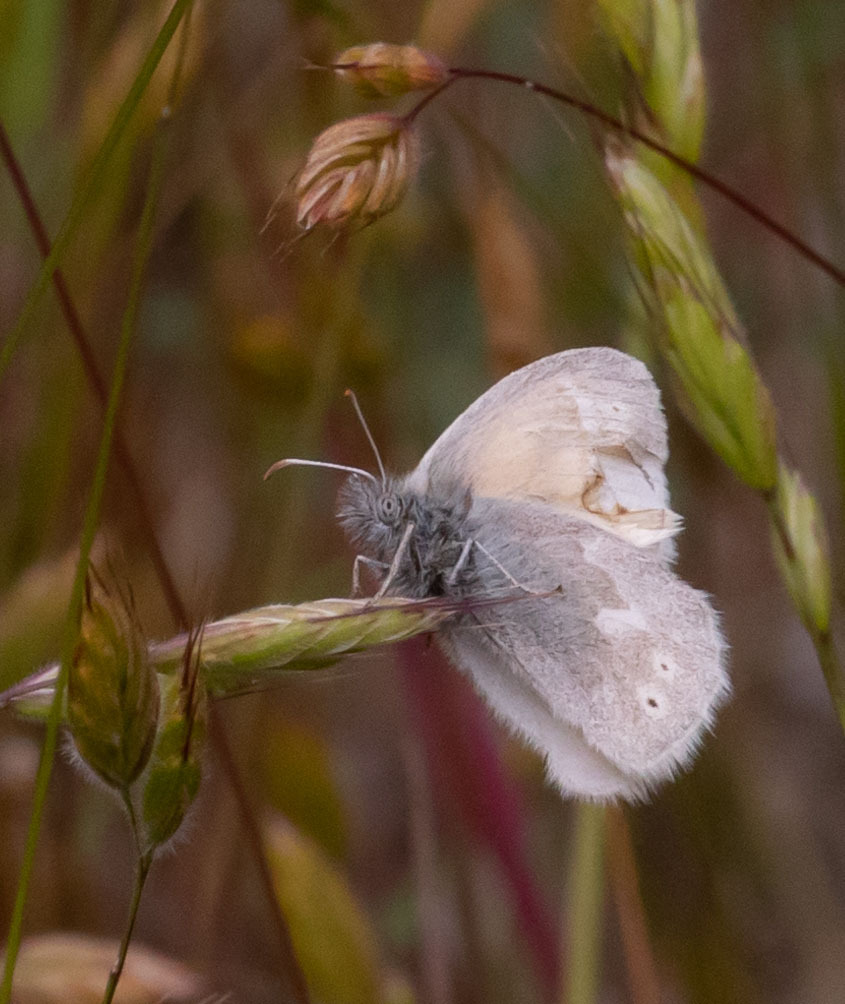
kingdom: Animalia
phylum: Arthropoda
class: Insecta
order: Lepidoptera
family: Nymphalidae
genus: Coenonympha
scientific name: Coenonympha california
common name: Common ringlet
